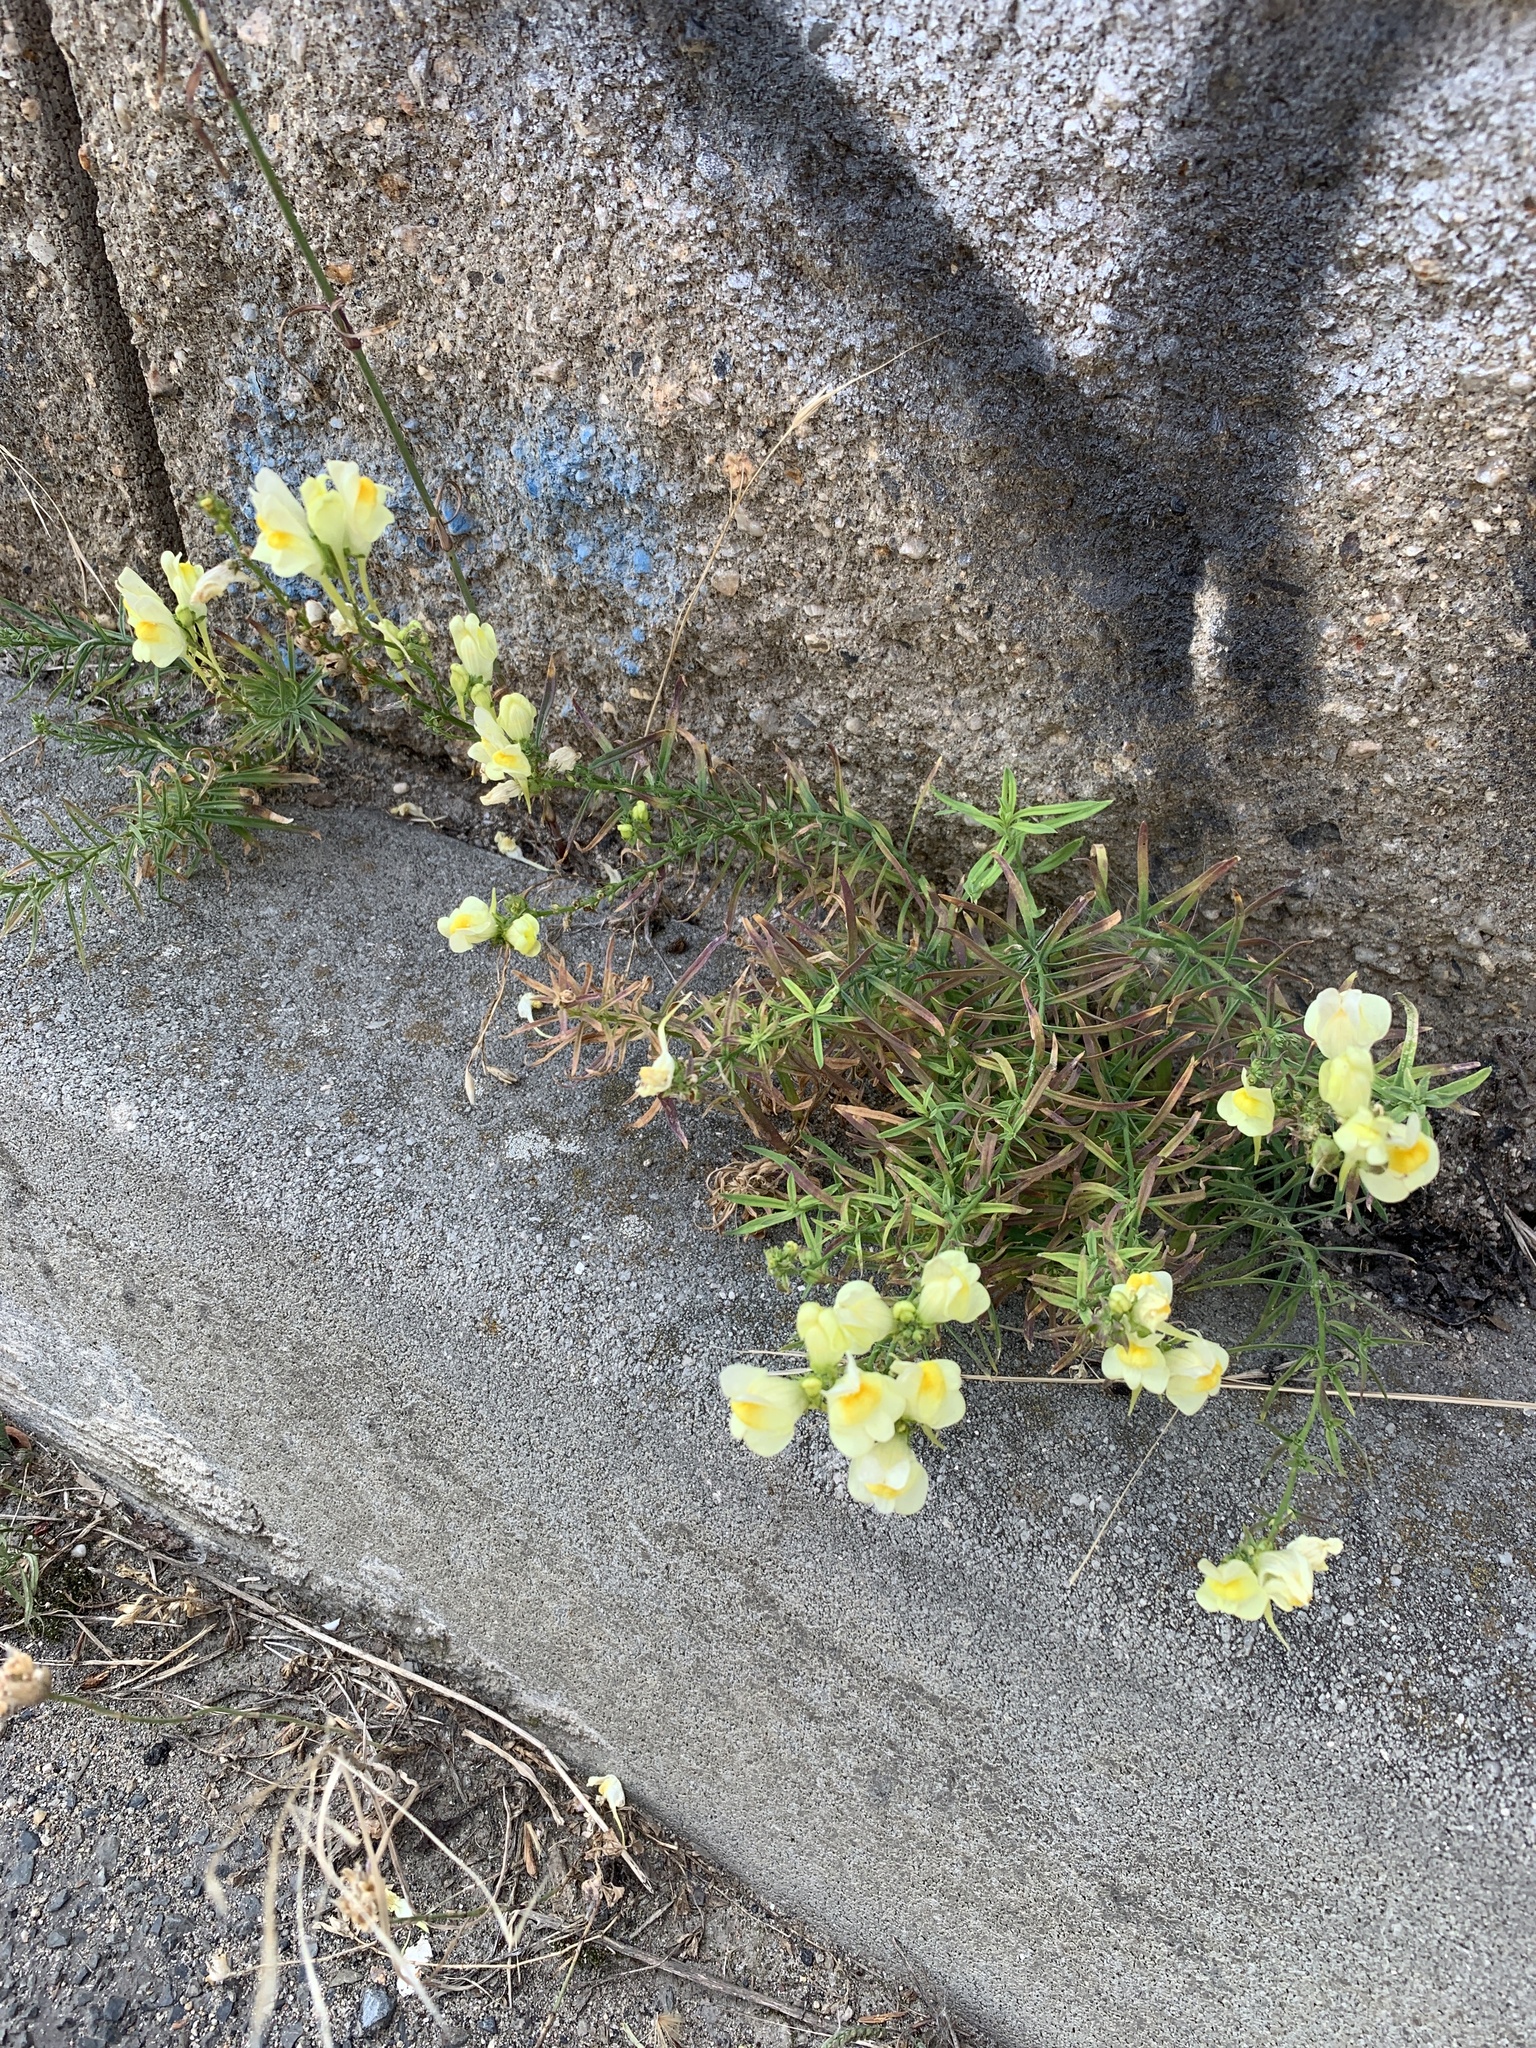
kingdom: Plantae
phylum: Tracheophyta
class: Magnoliopsida
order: Lamiales
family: Plantaginaceae
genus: Linaria
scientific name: Linaria vulgaris
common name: Butter and eggs
